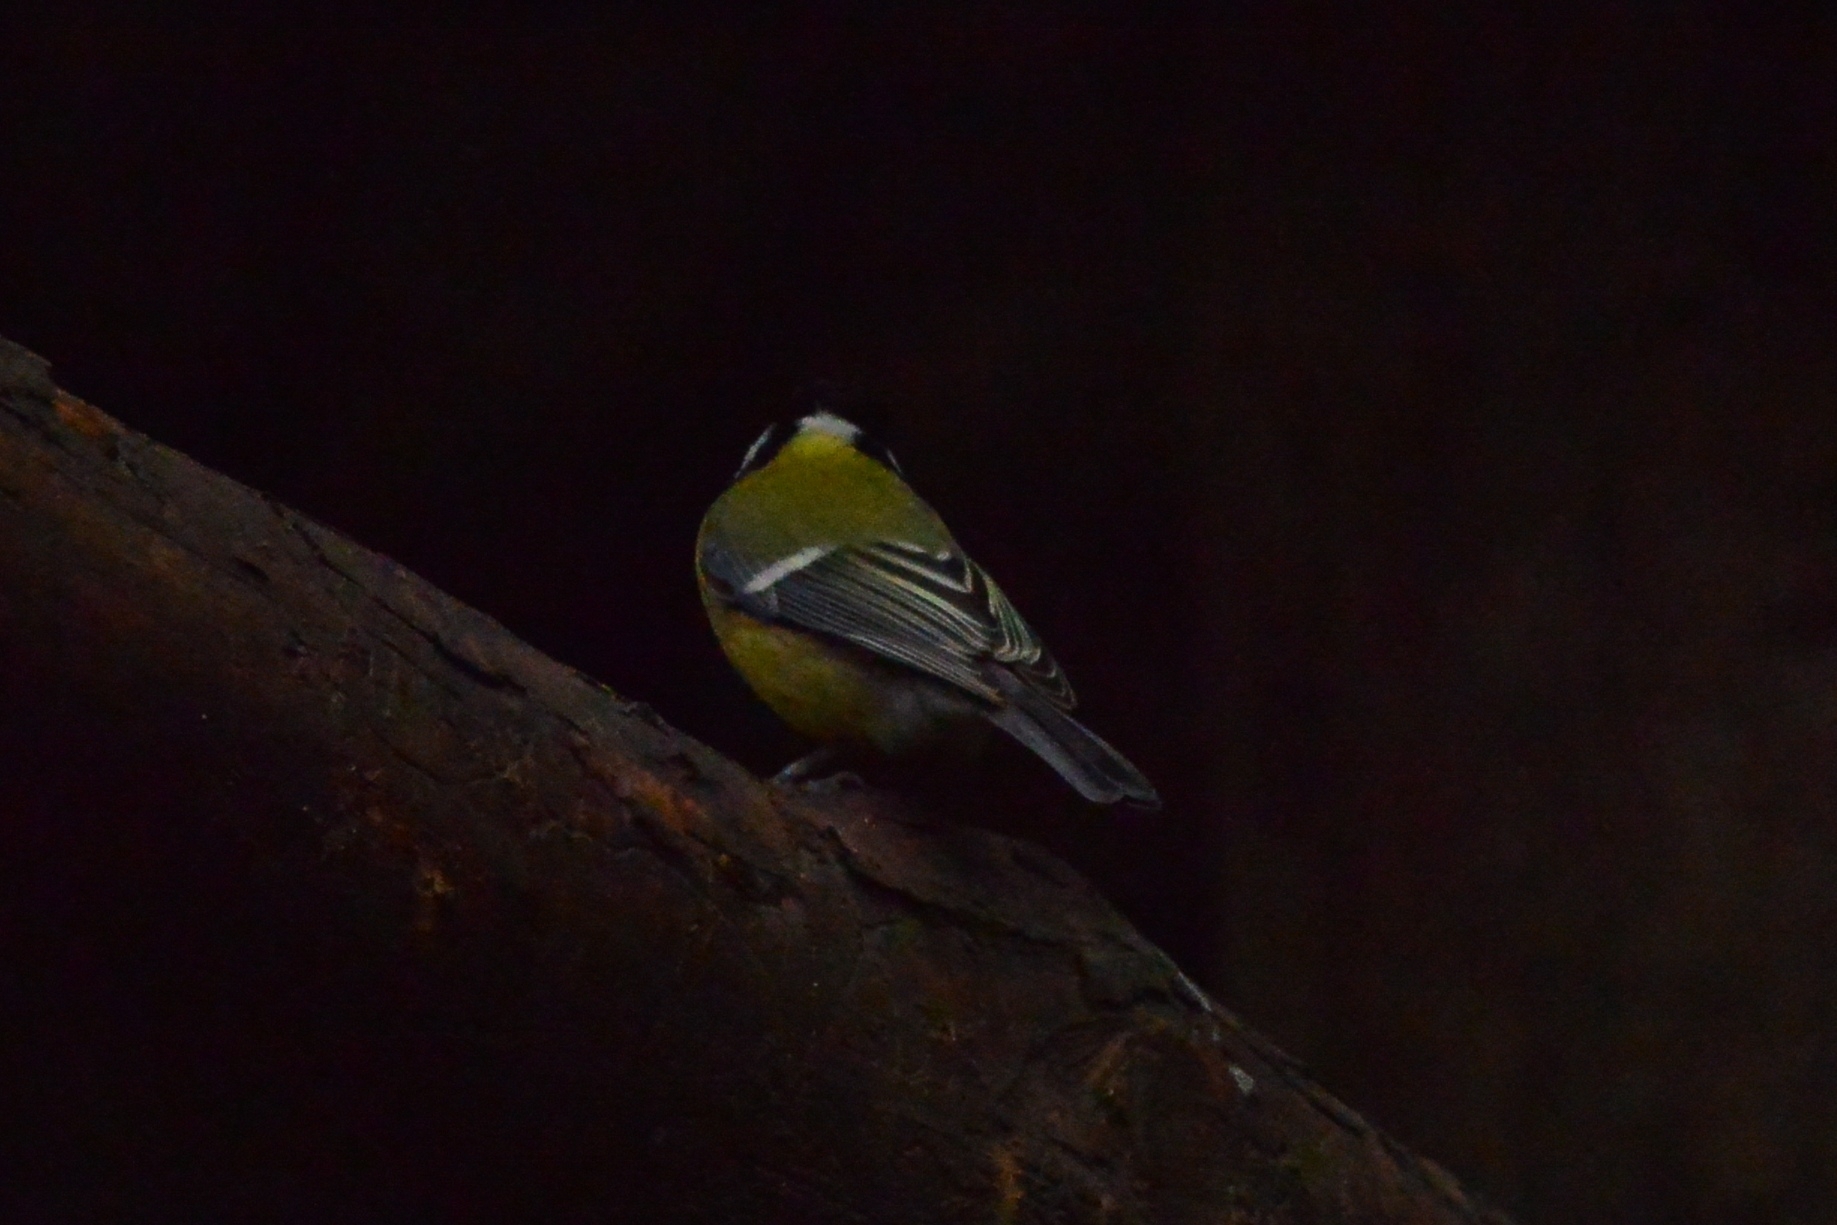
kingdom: Animalia
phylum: Chordata
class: Aves
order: Passeriformes
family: Paridae
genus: Parus
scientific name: Parus major
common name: Great tit
